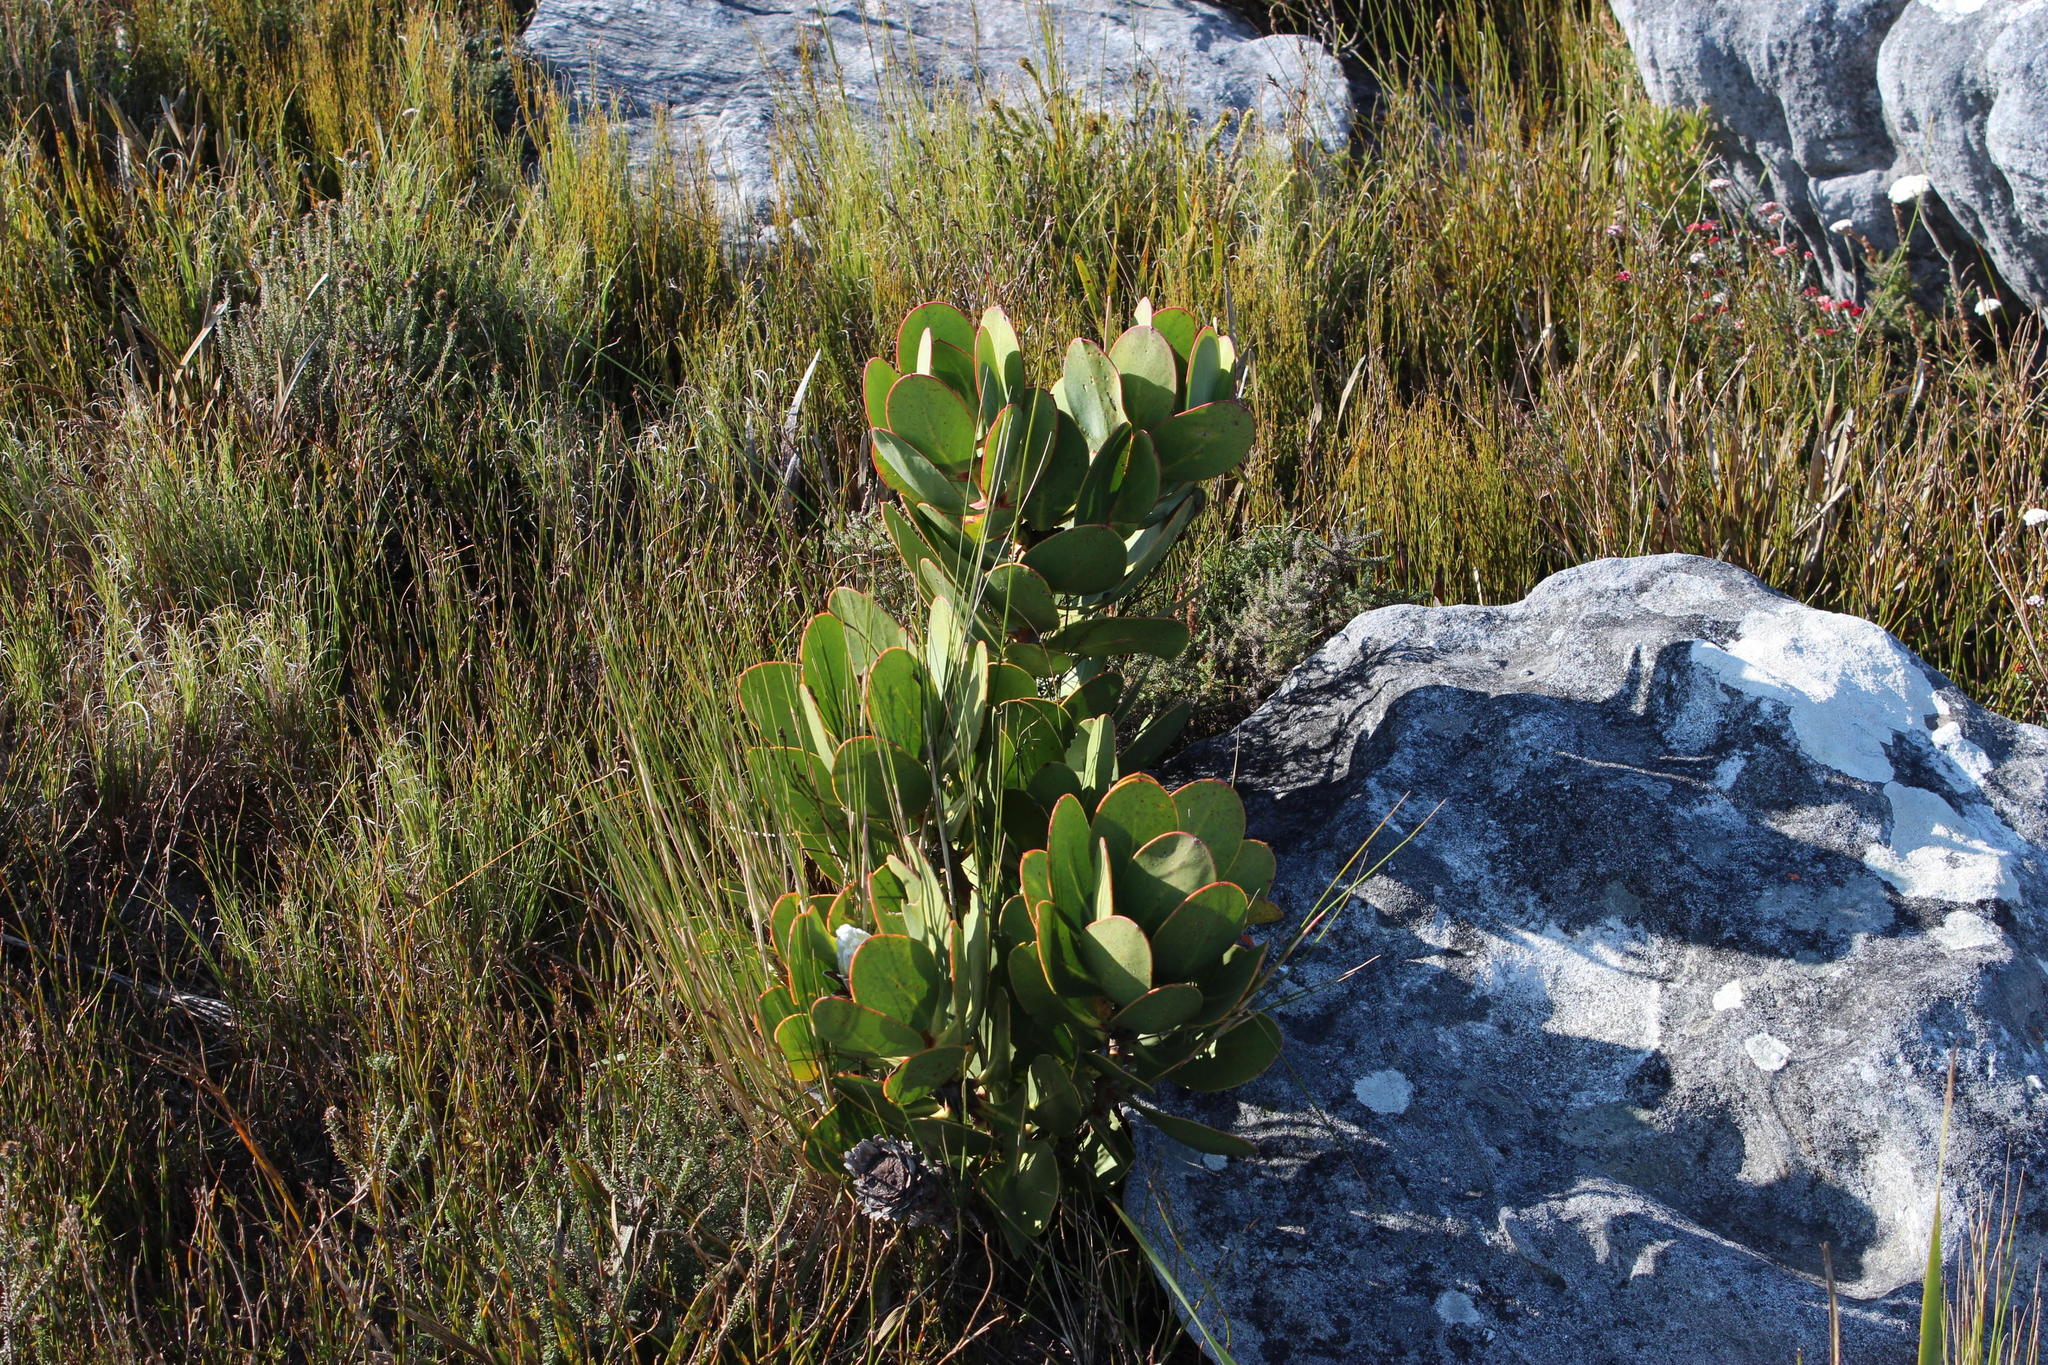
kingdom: Plantae
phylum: Tracheophyta
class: Magnoliopsida
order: Proteales
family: Proteaceae
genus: Protea
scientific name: Protea speciosa
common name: Brown-beard sugarbush
